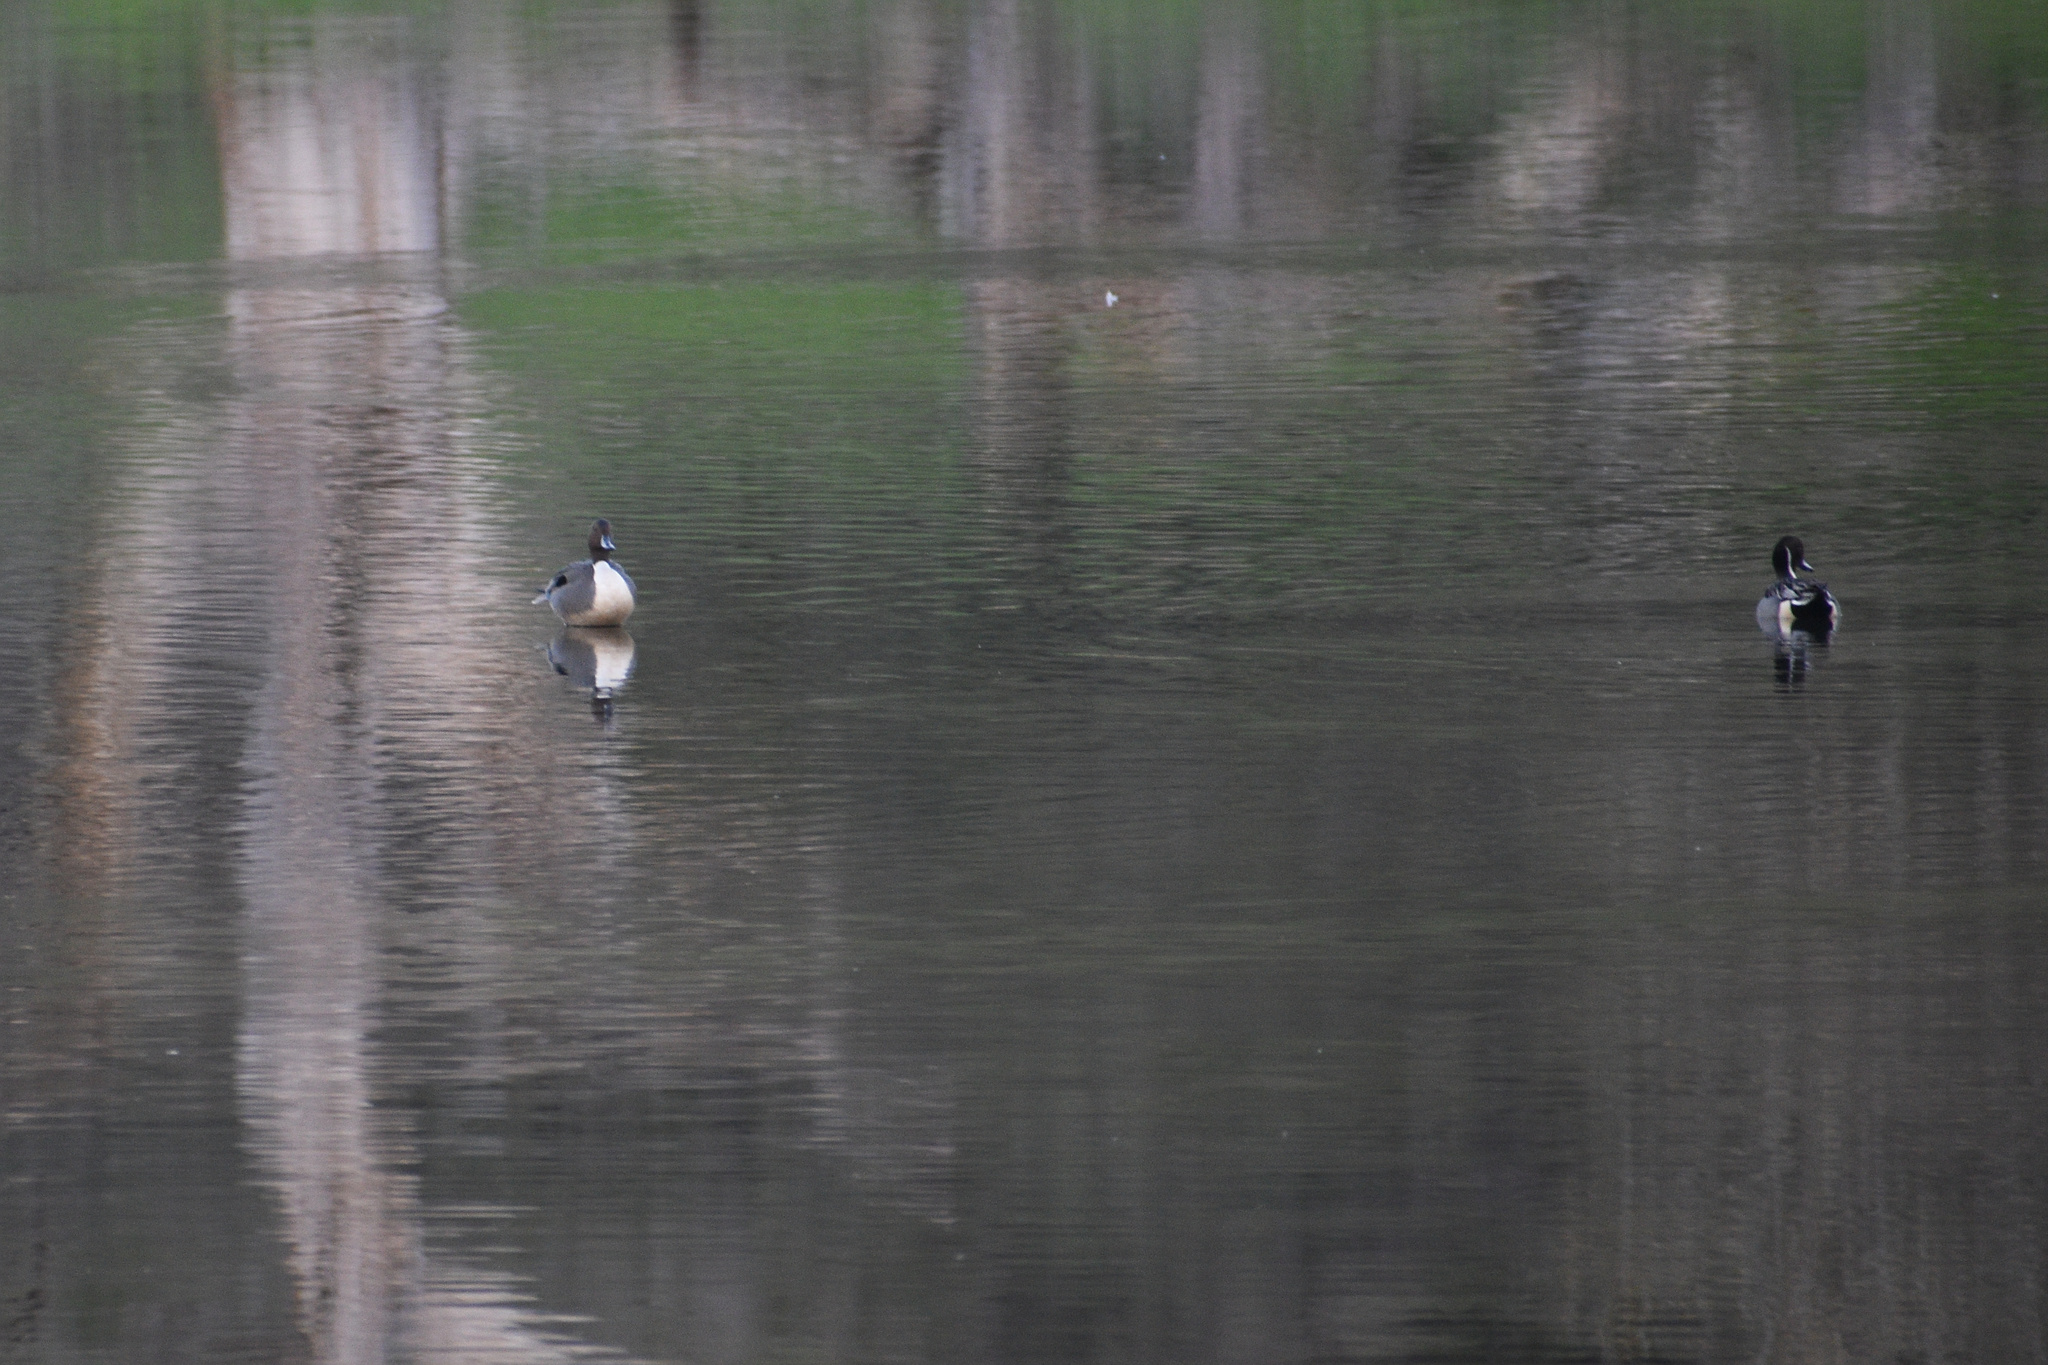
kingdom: Animalia
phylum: Chordata
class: Aves
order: Anseriformes
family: Anatidae
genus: Anas
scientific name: Anas acuta
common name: Northern pintail
